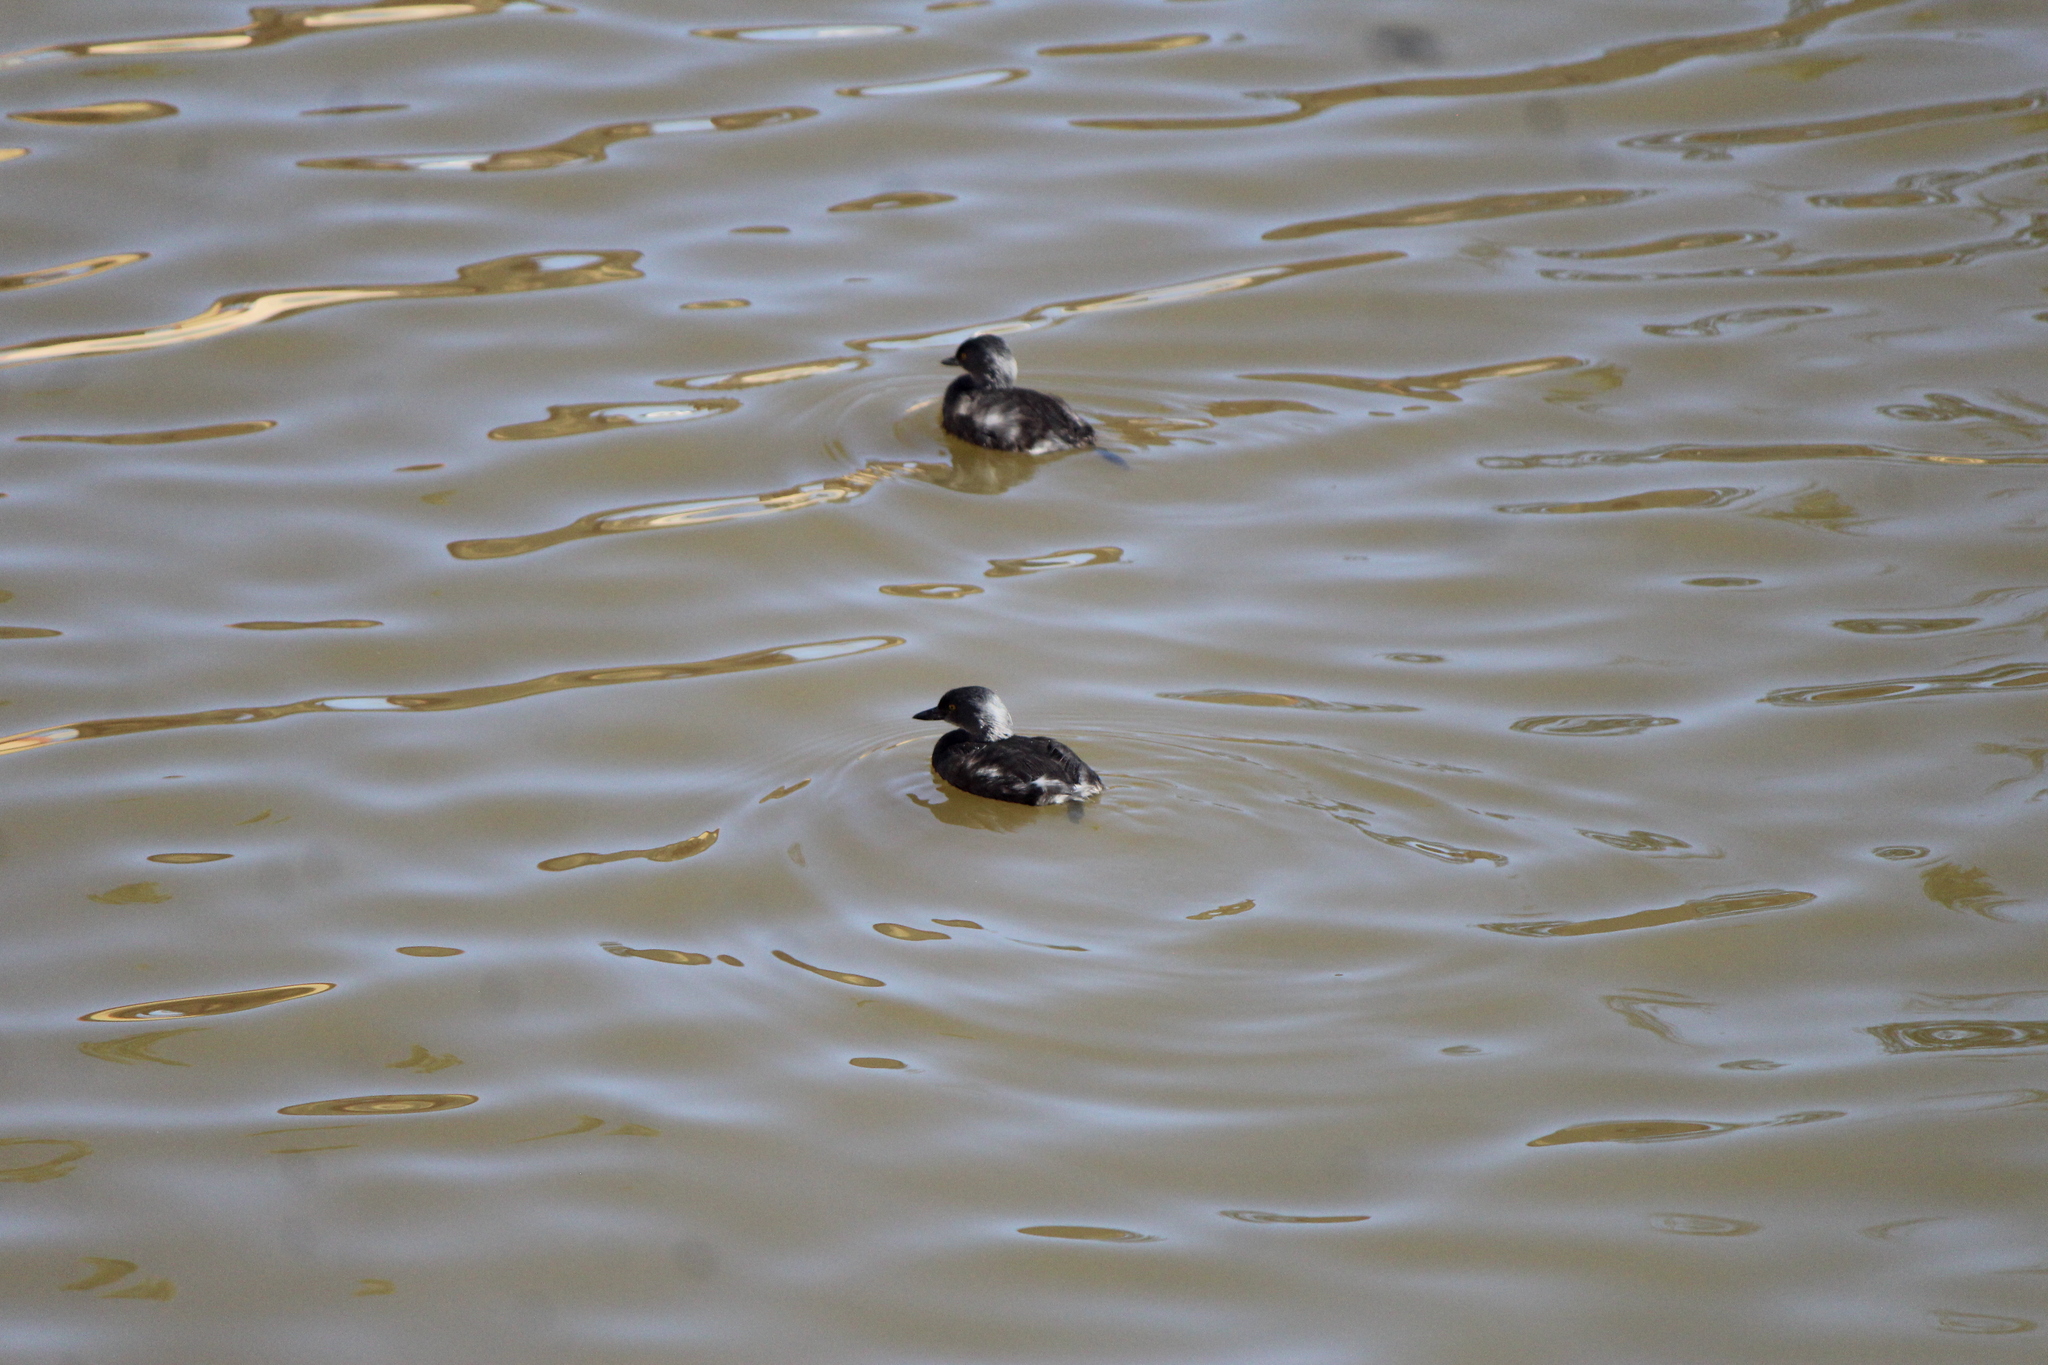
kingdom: Animalia
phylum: Chordata
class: Aves
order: Podicipediformes
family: Podicipedidae
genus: Tachybaptus
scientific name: Tachybaptus dominicus
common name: Least grebe
